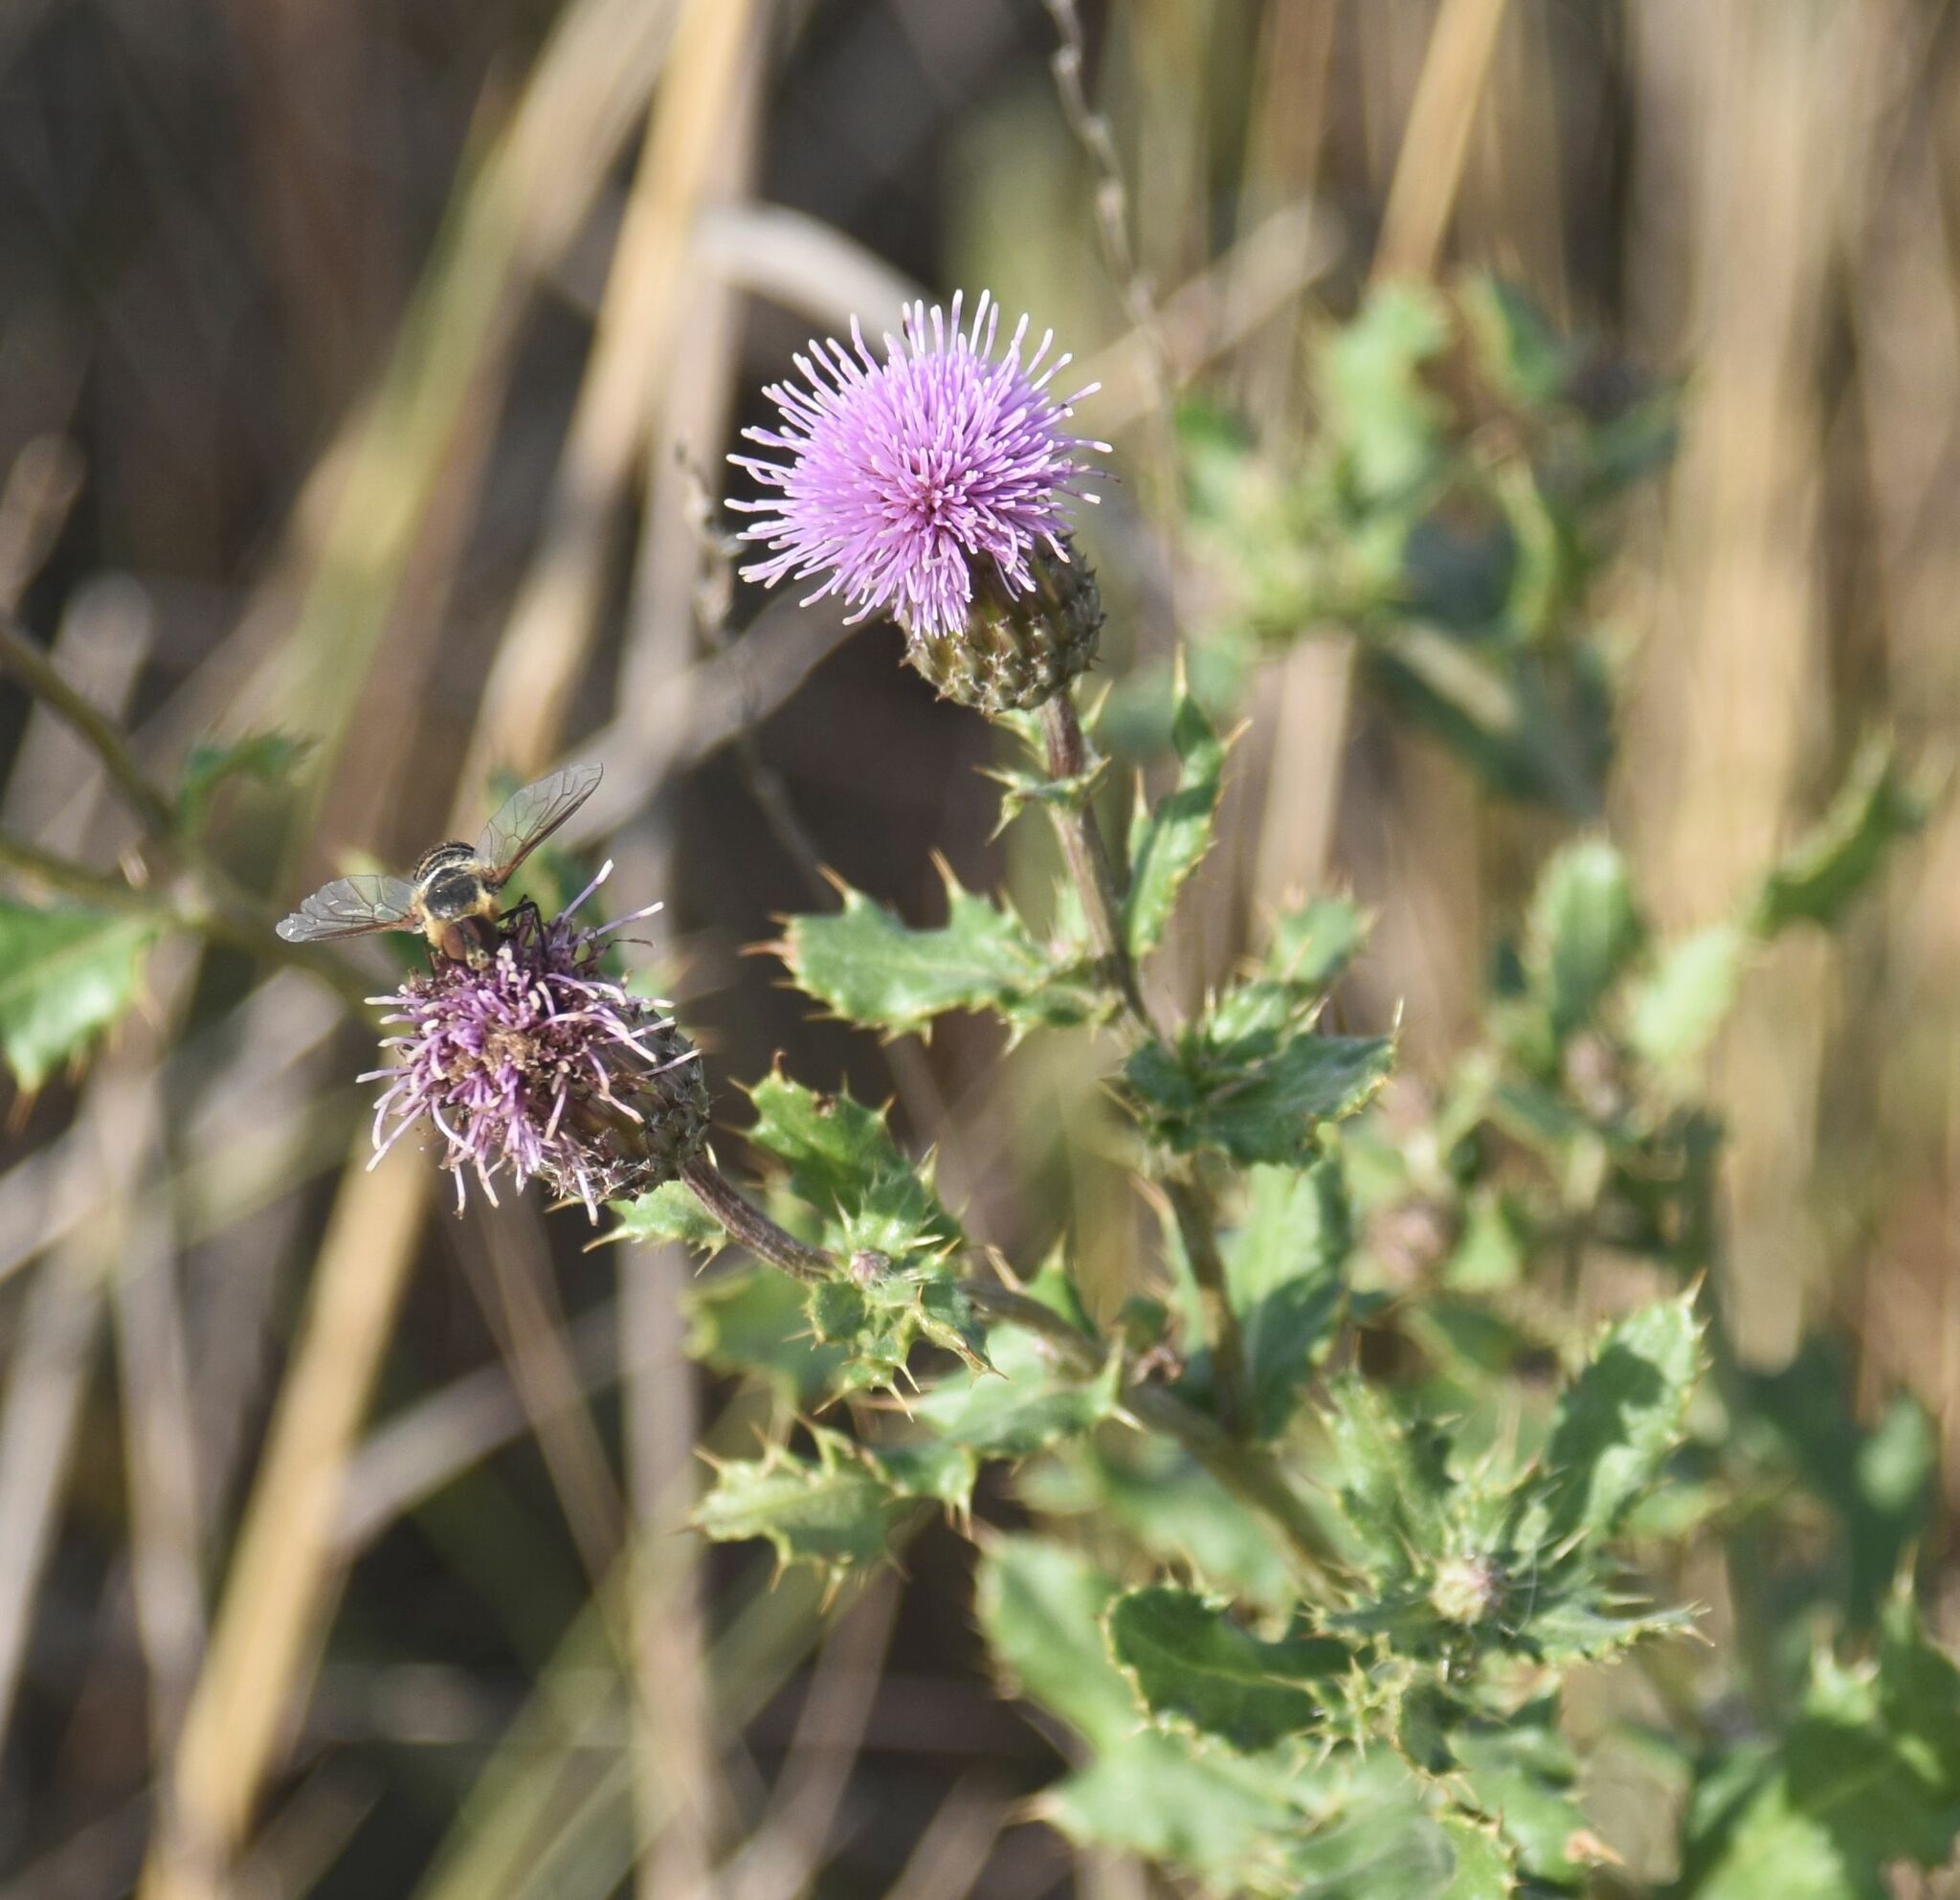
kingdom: Plantae
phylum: Tracheophyta
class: Magnoliopsida
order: Asterales
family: Asteraceae
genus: Cirsium
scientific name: Cirsium arvense
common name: Creeping thistle
